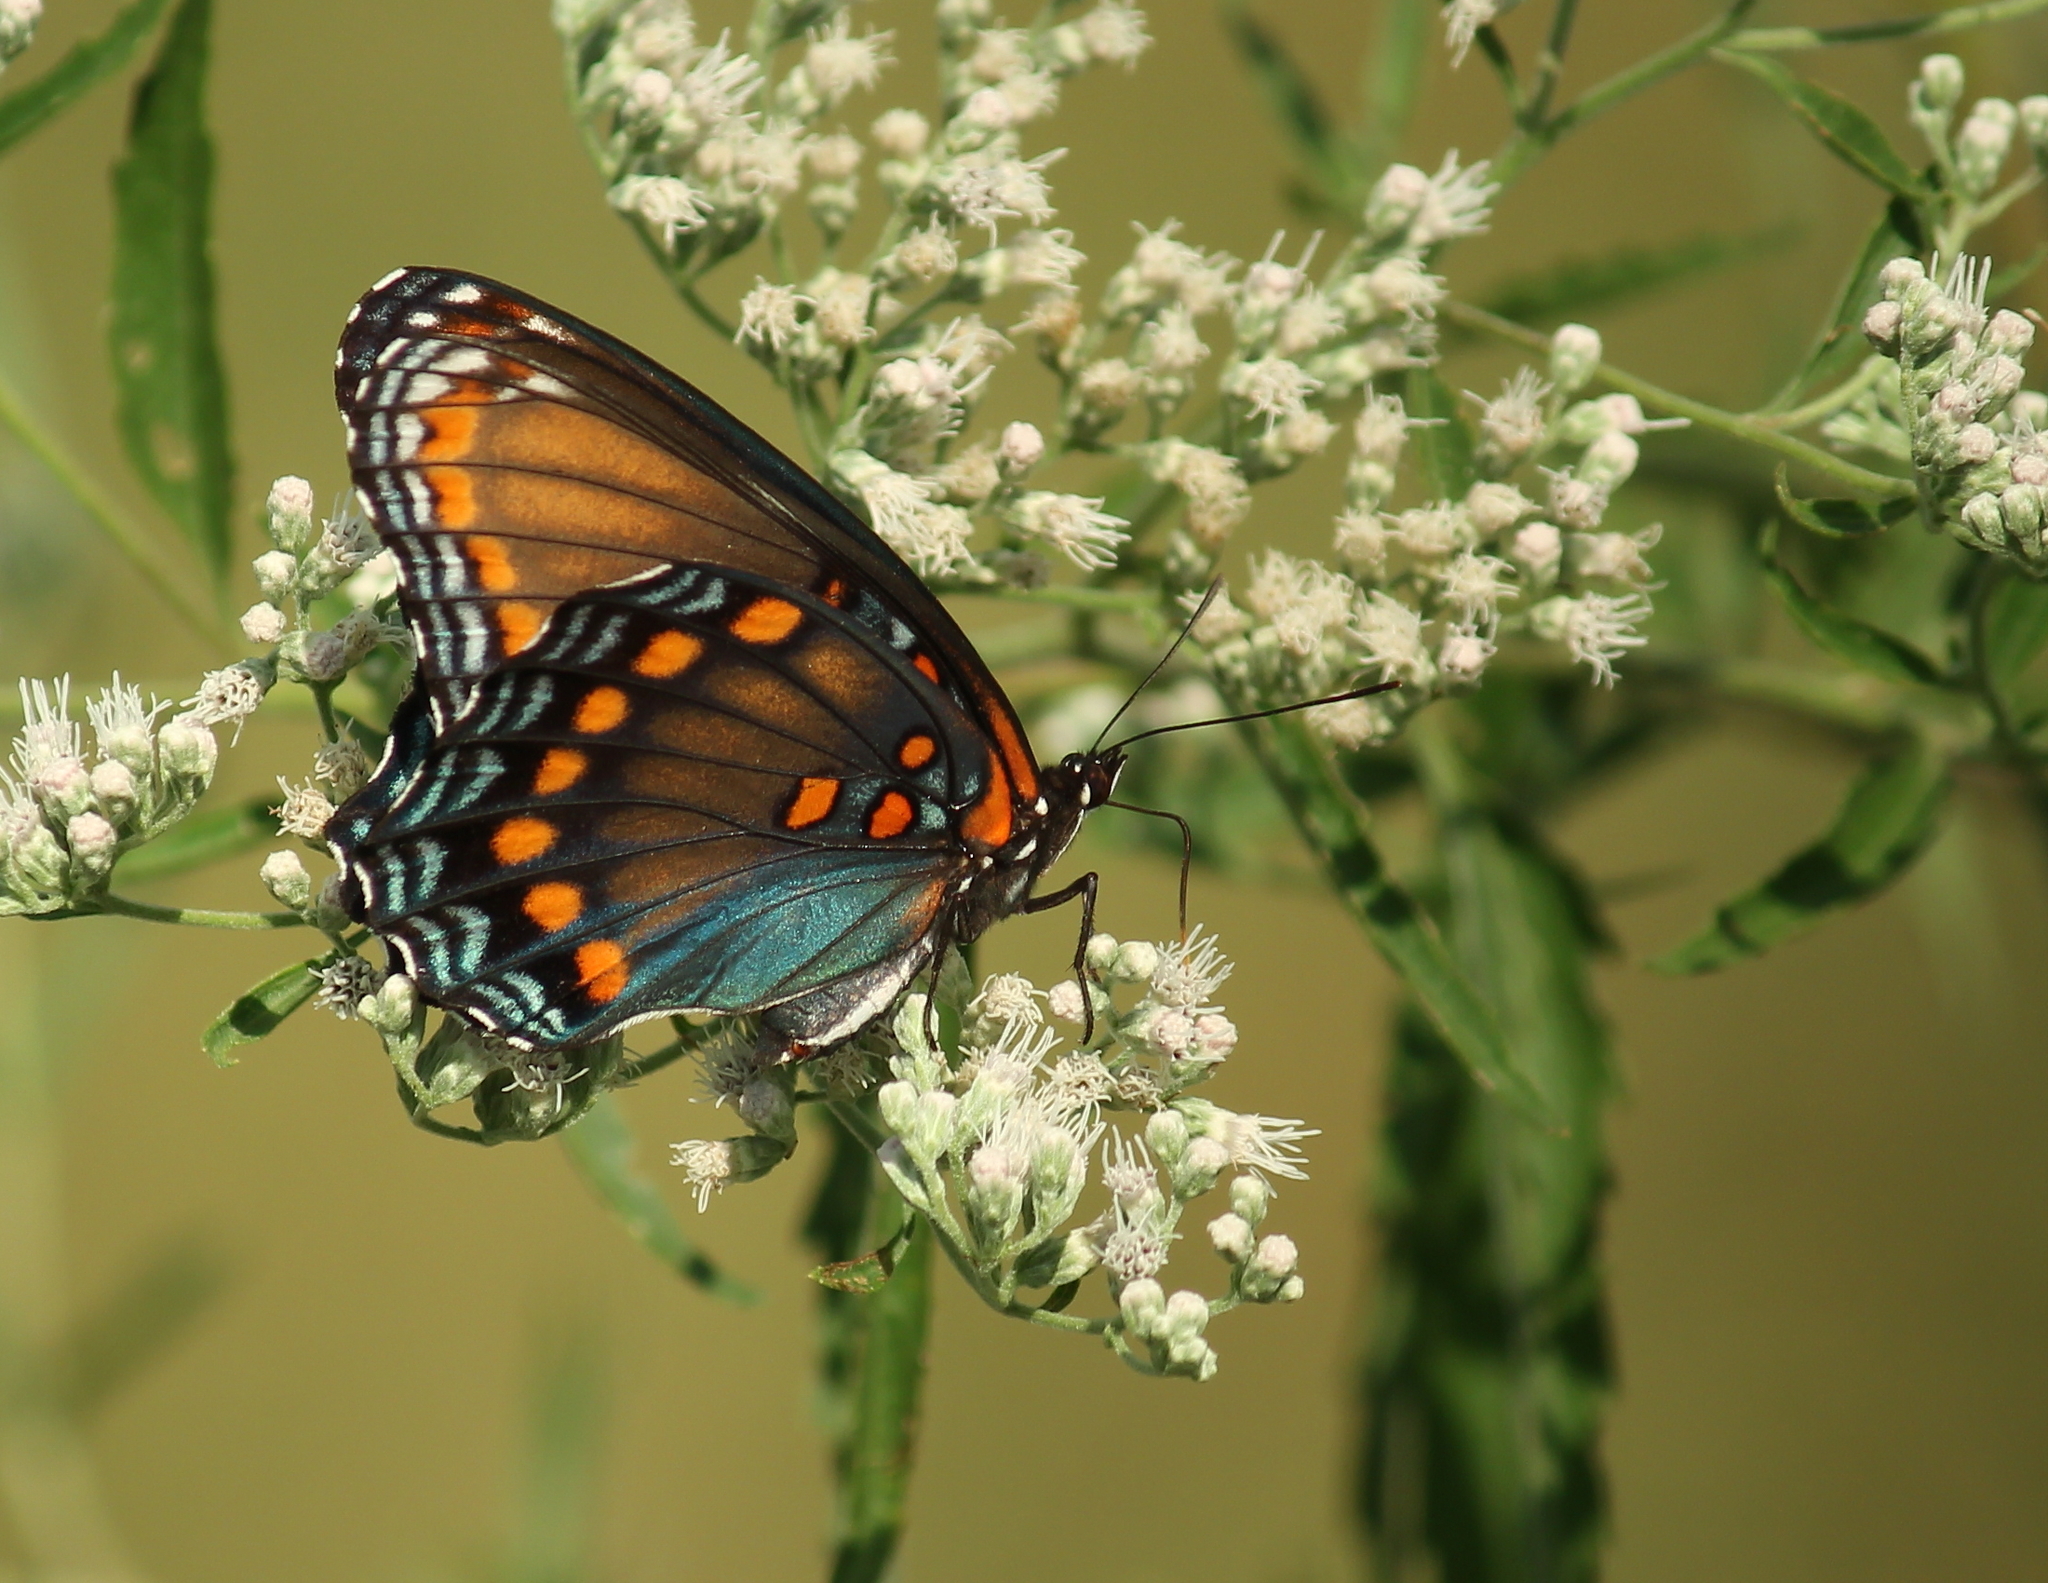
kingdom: Animalia
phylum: Arthropoda
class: Insecta
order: Lepidoptera
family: Nymphalidae
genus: Limenitis
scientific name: Limenitis astyanax
